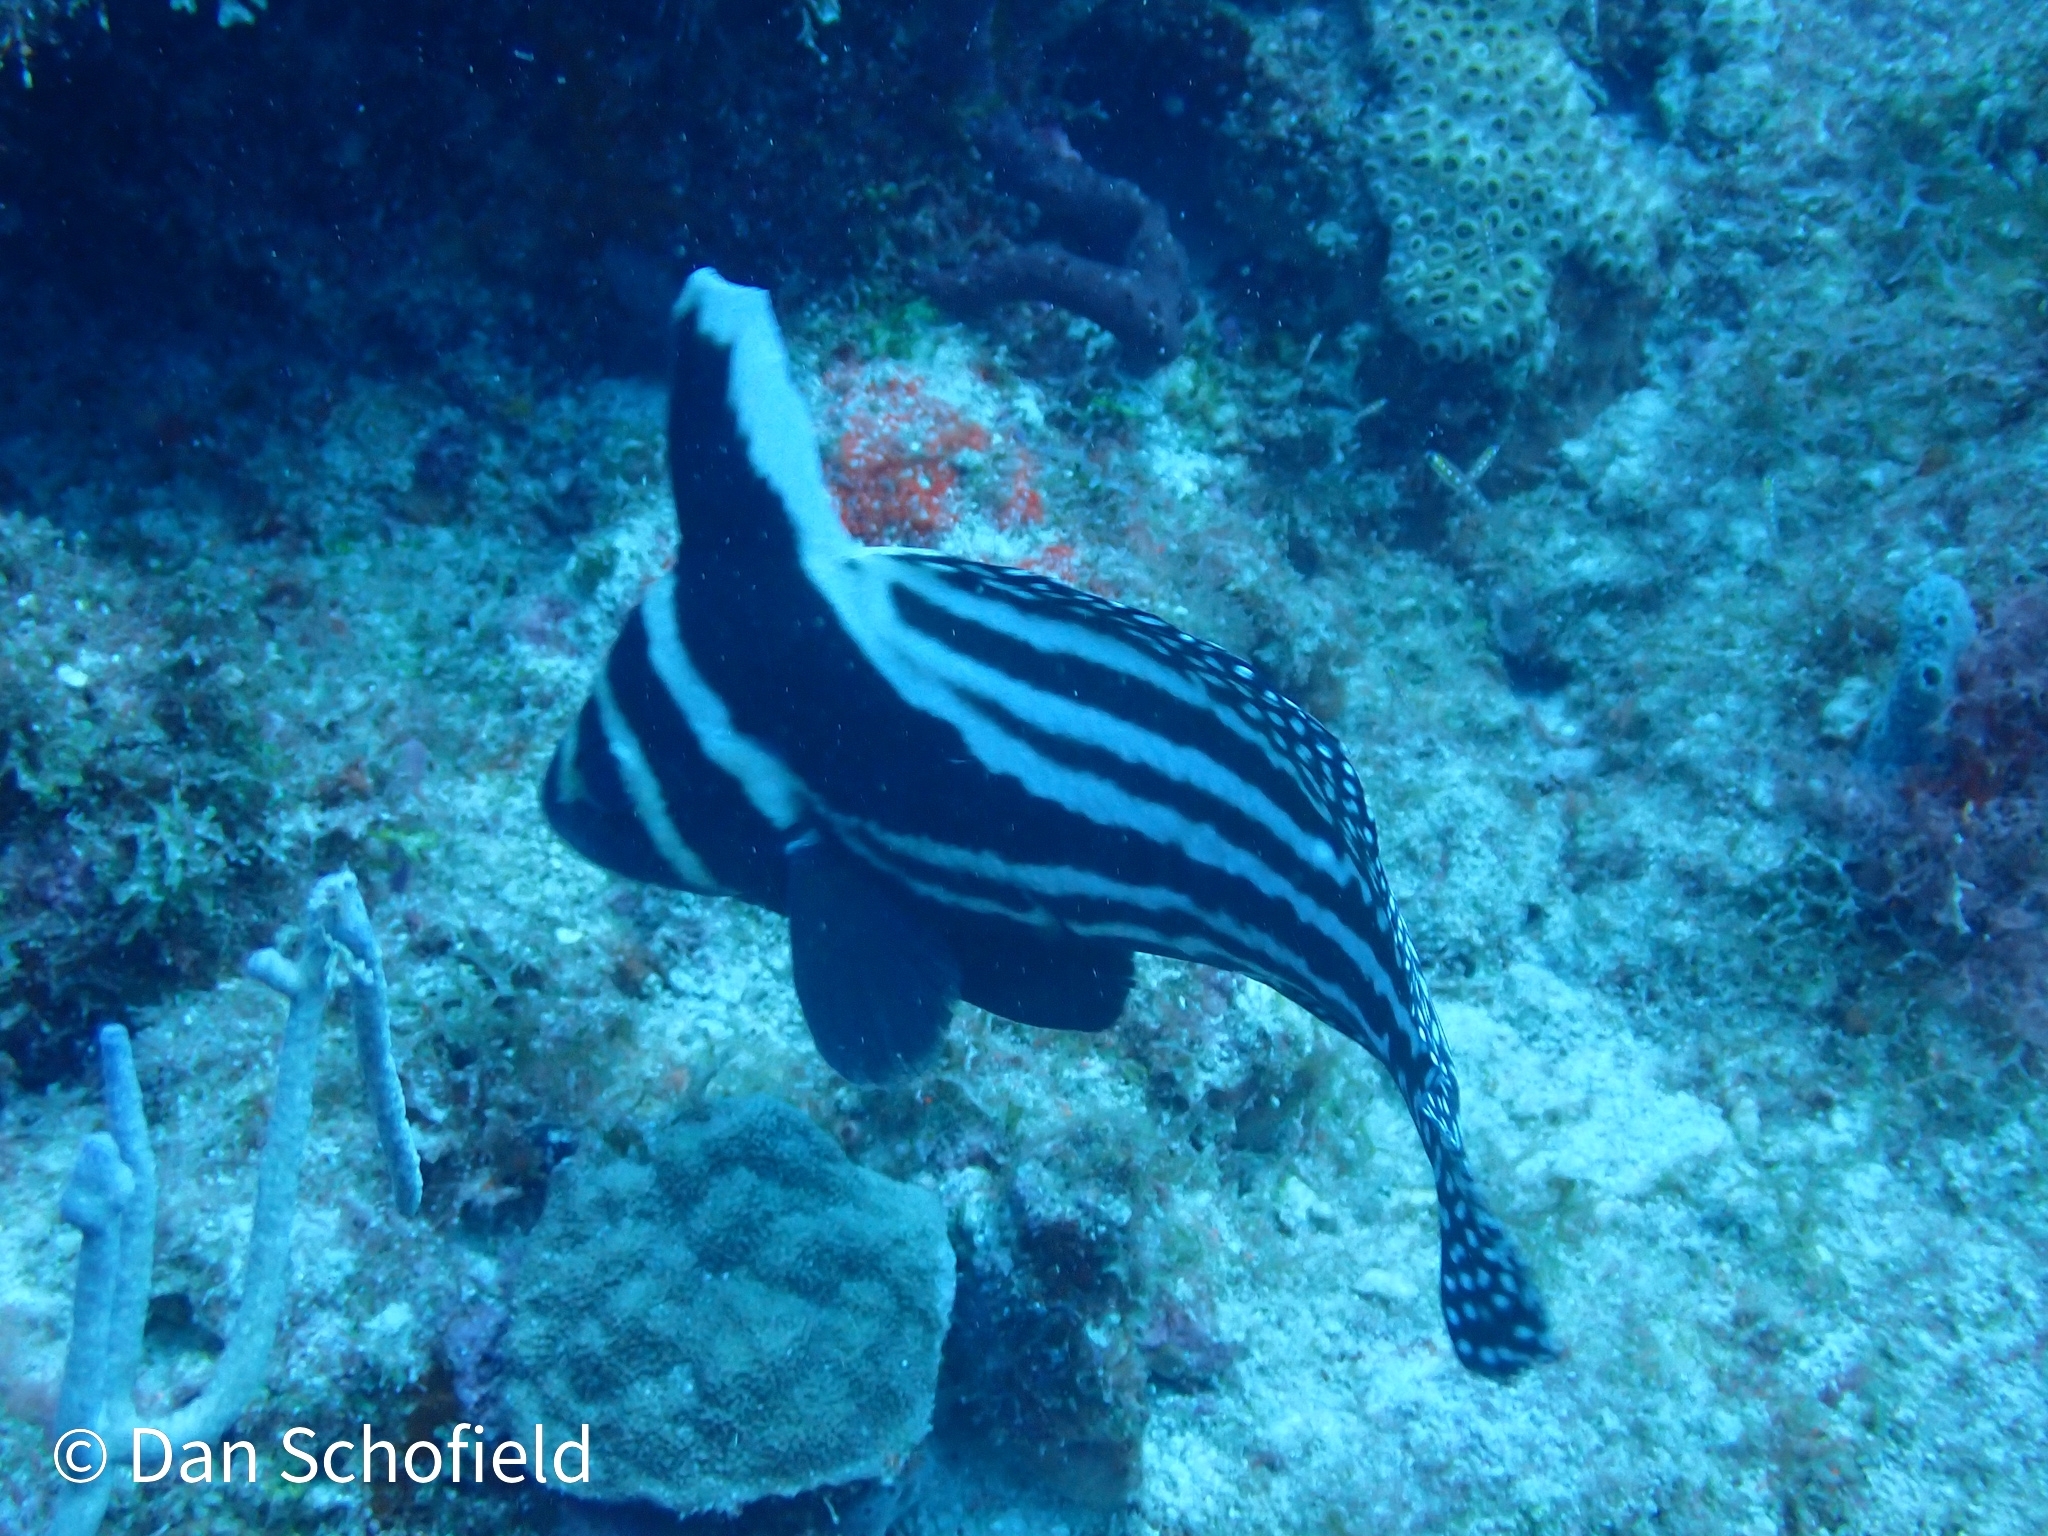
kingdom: Animalia
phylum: Chordata
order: Perciformes
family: Sciaenidae
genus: Equetus
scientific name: Equetus punctatus
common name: Spotted drum
